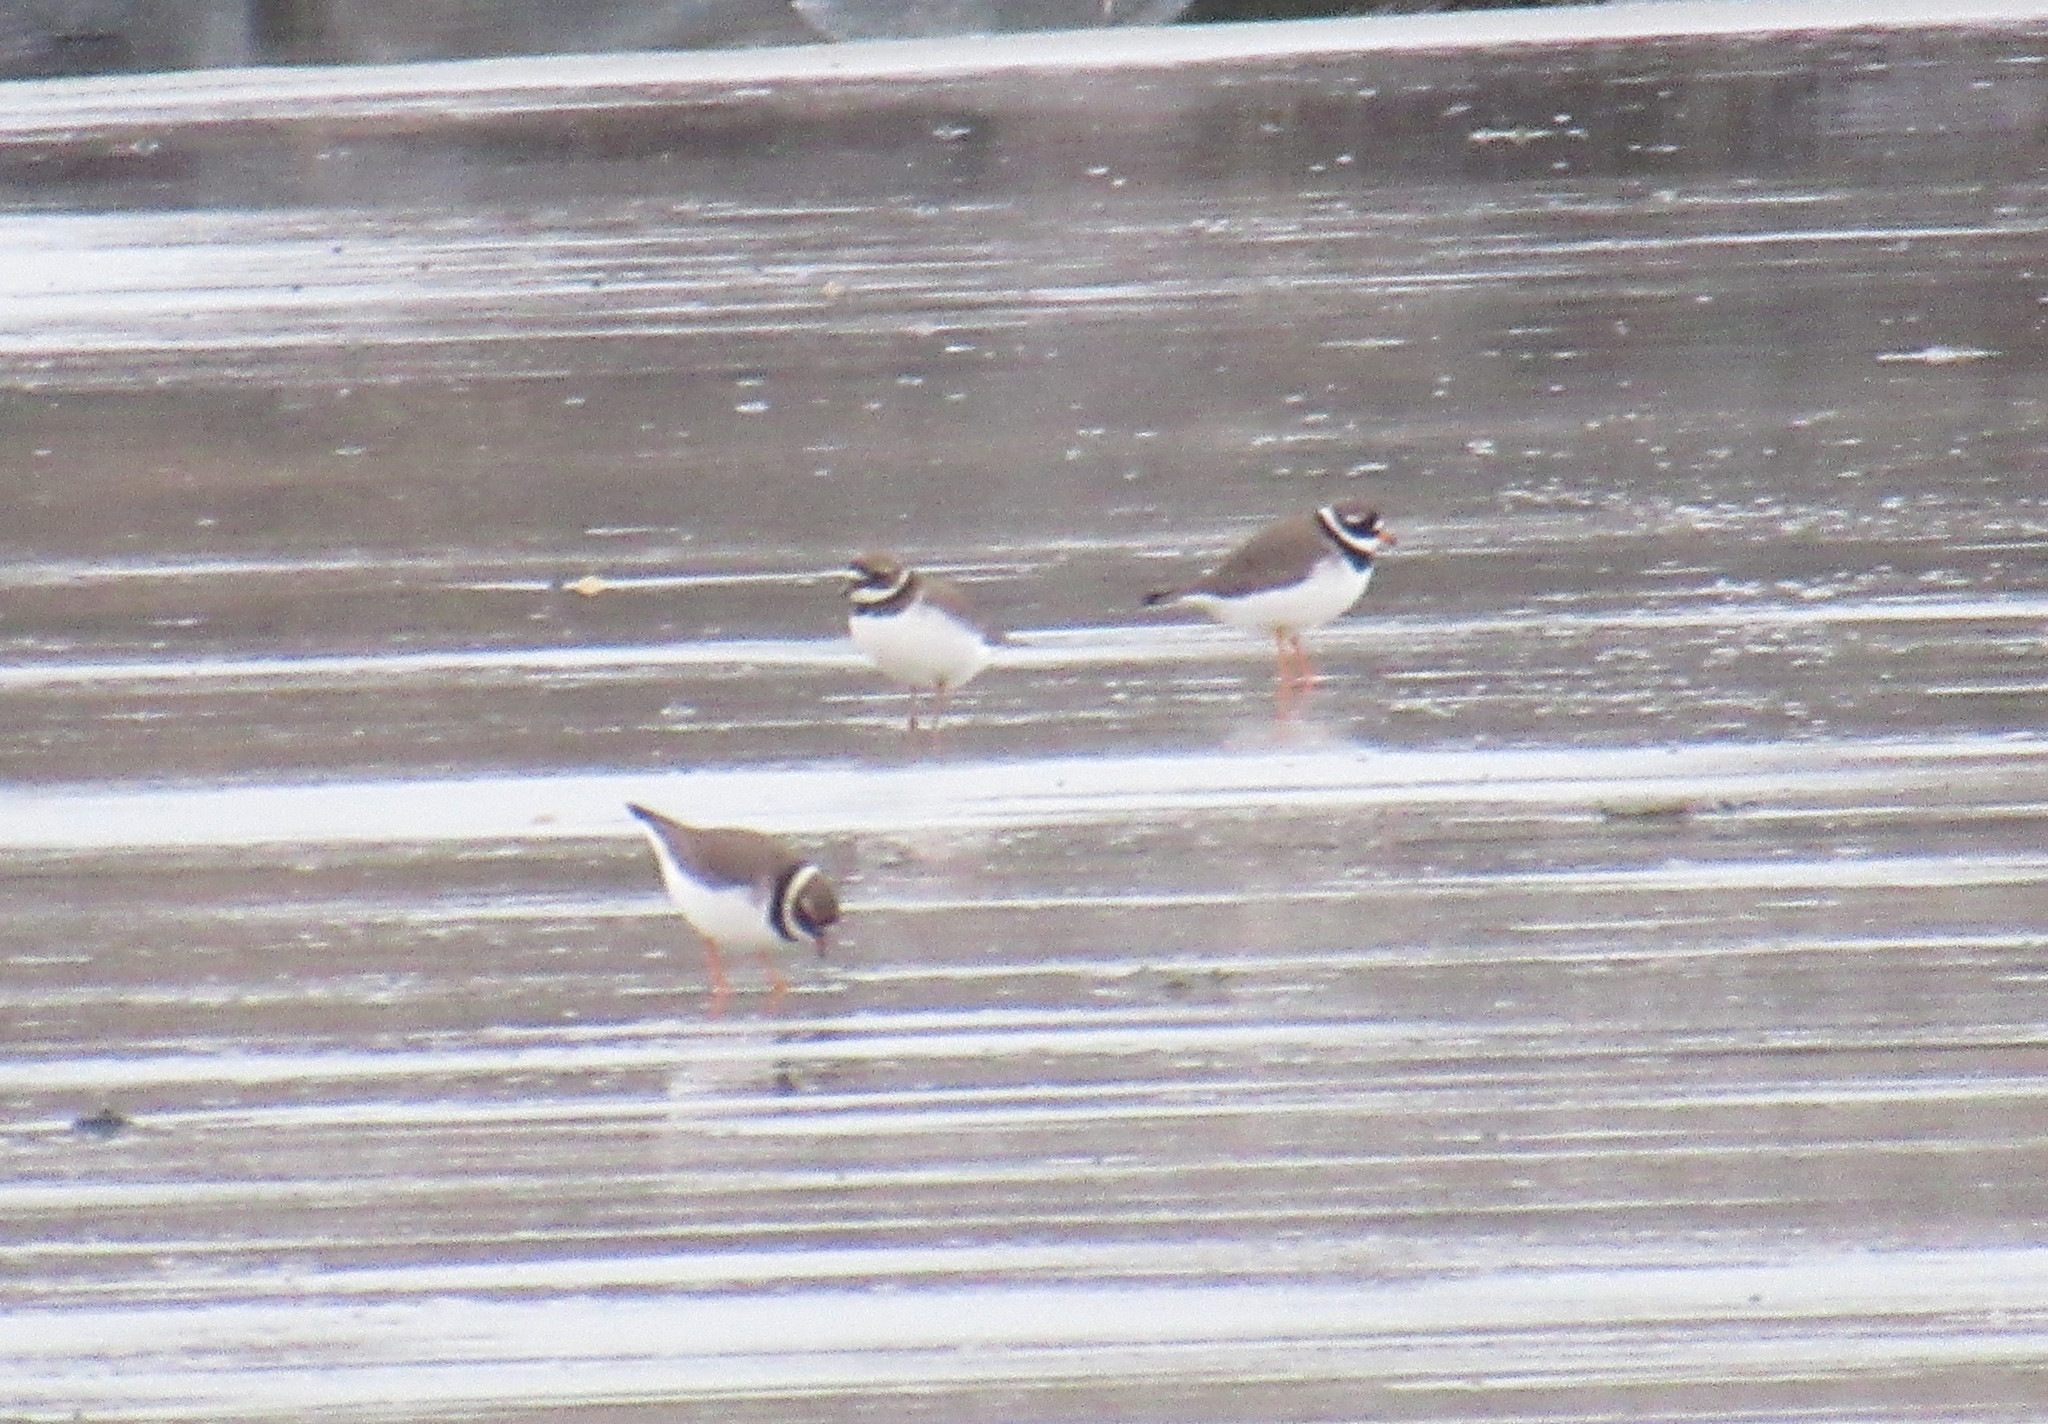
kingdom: Animalia
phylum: Chordata
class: Aves
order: Charadriiformes
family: Charadriidae
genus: Charadrius
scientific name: Charadrius hiaticula
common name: Common ringed plover
